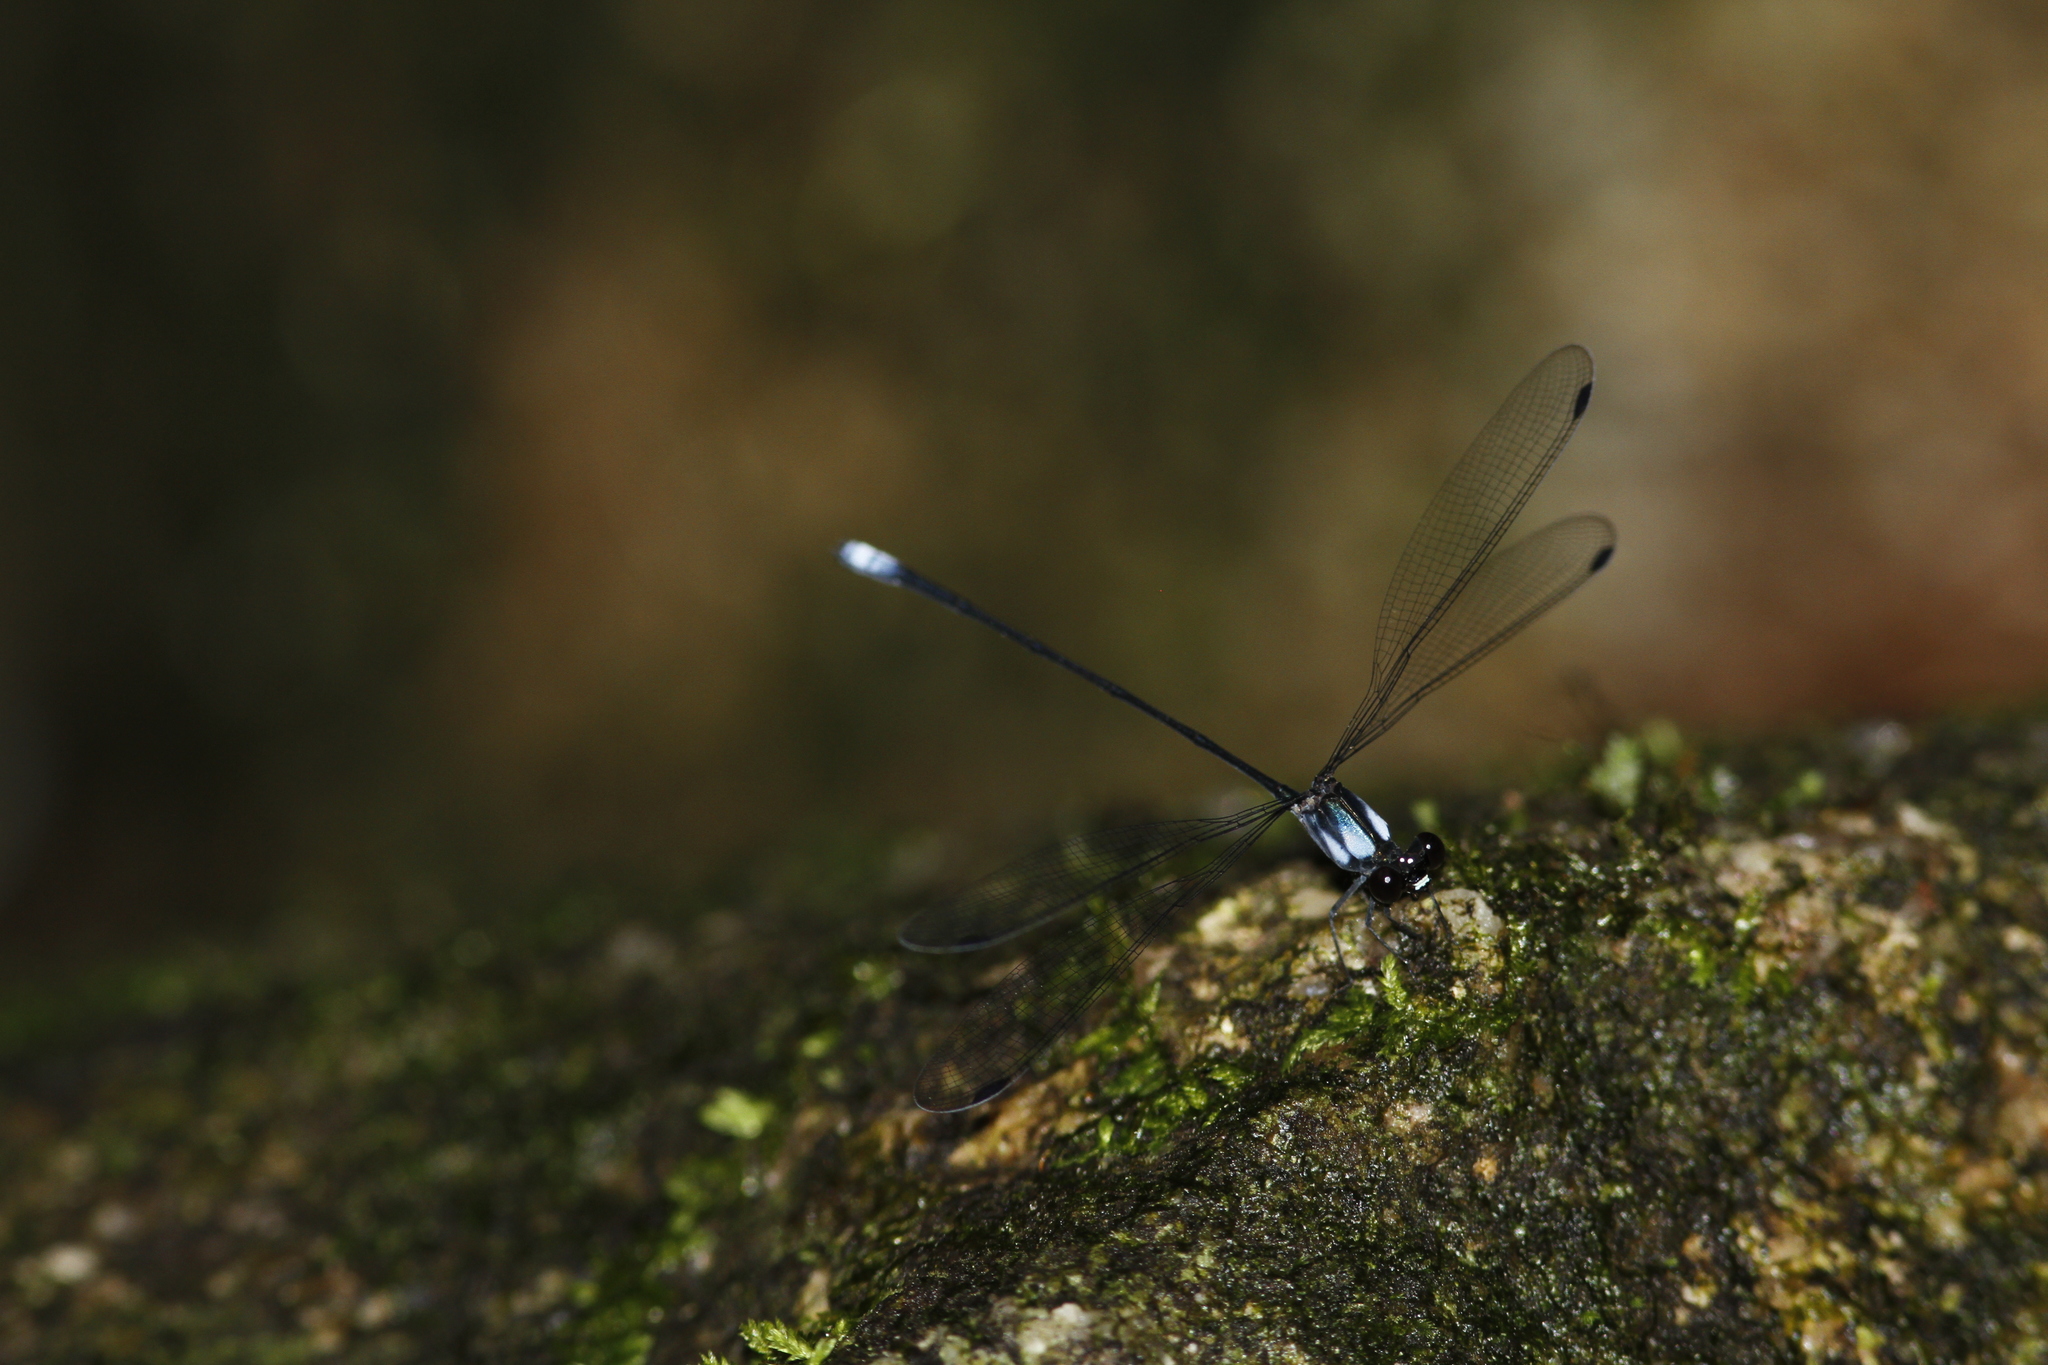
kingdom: Animalia
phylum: Arthropoda
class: Insecta
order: Odonata
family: Heteragrionidae
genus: Dimeragrion
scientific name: Dimeragrion percubitale
